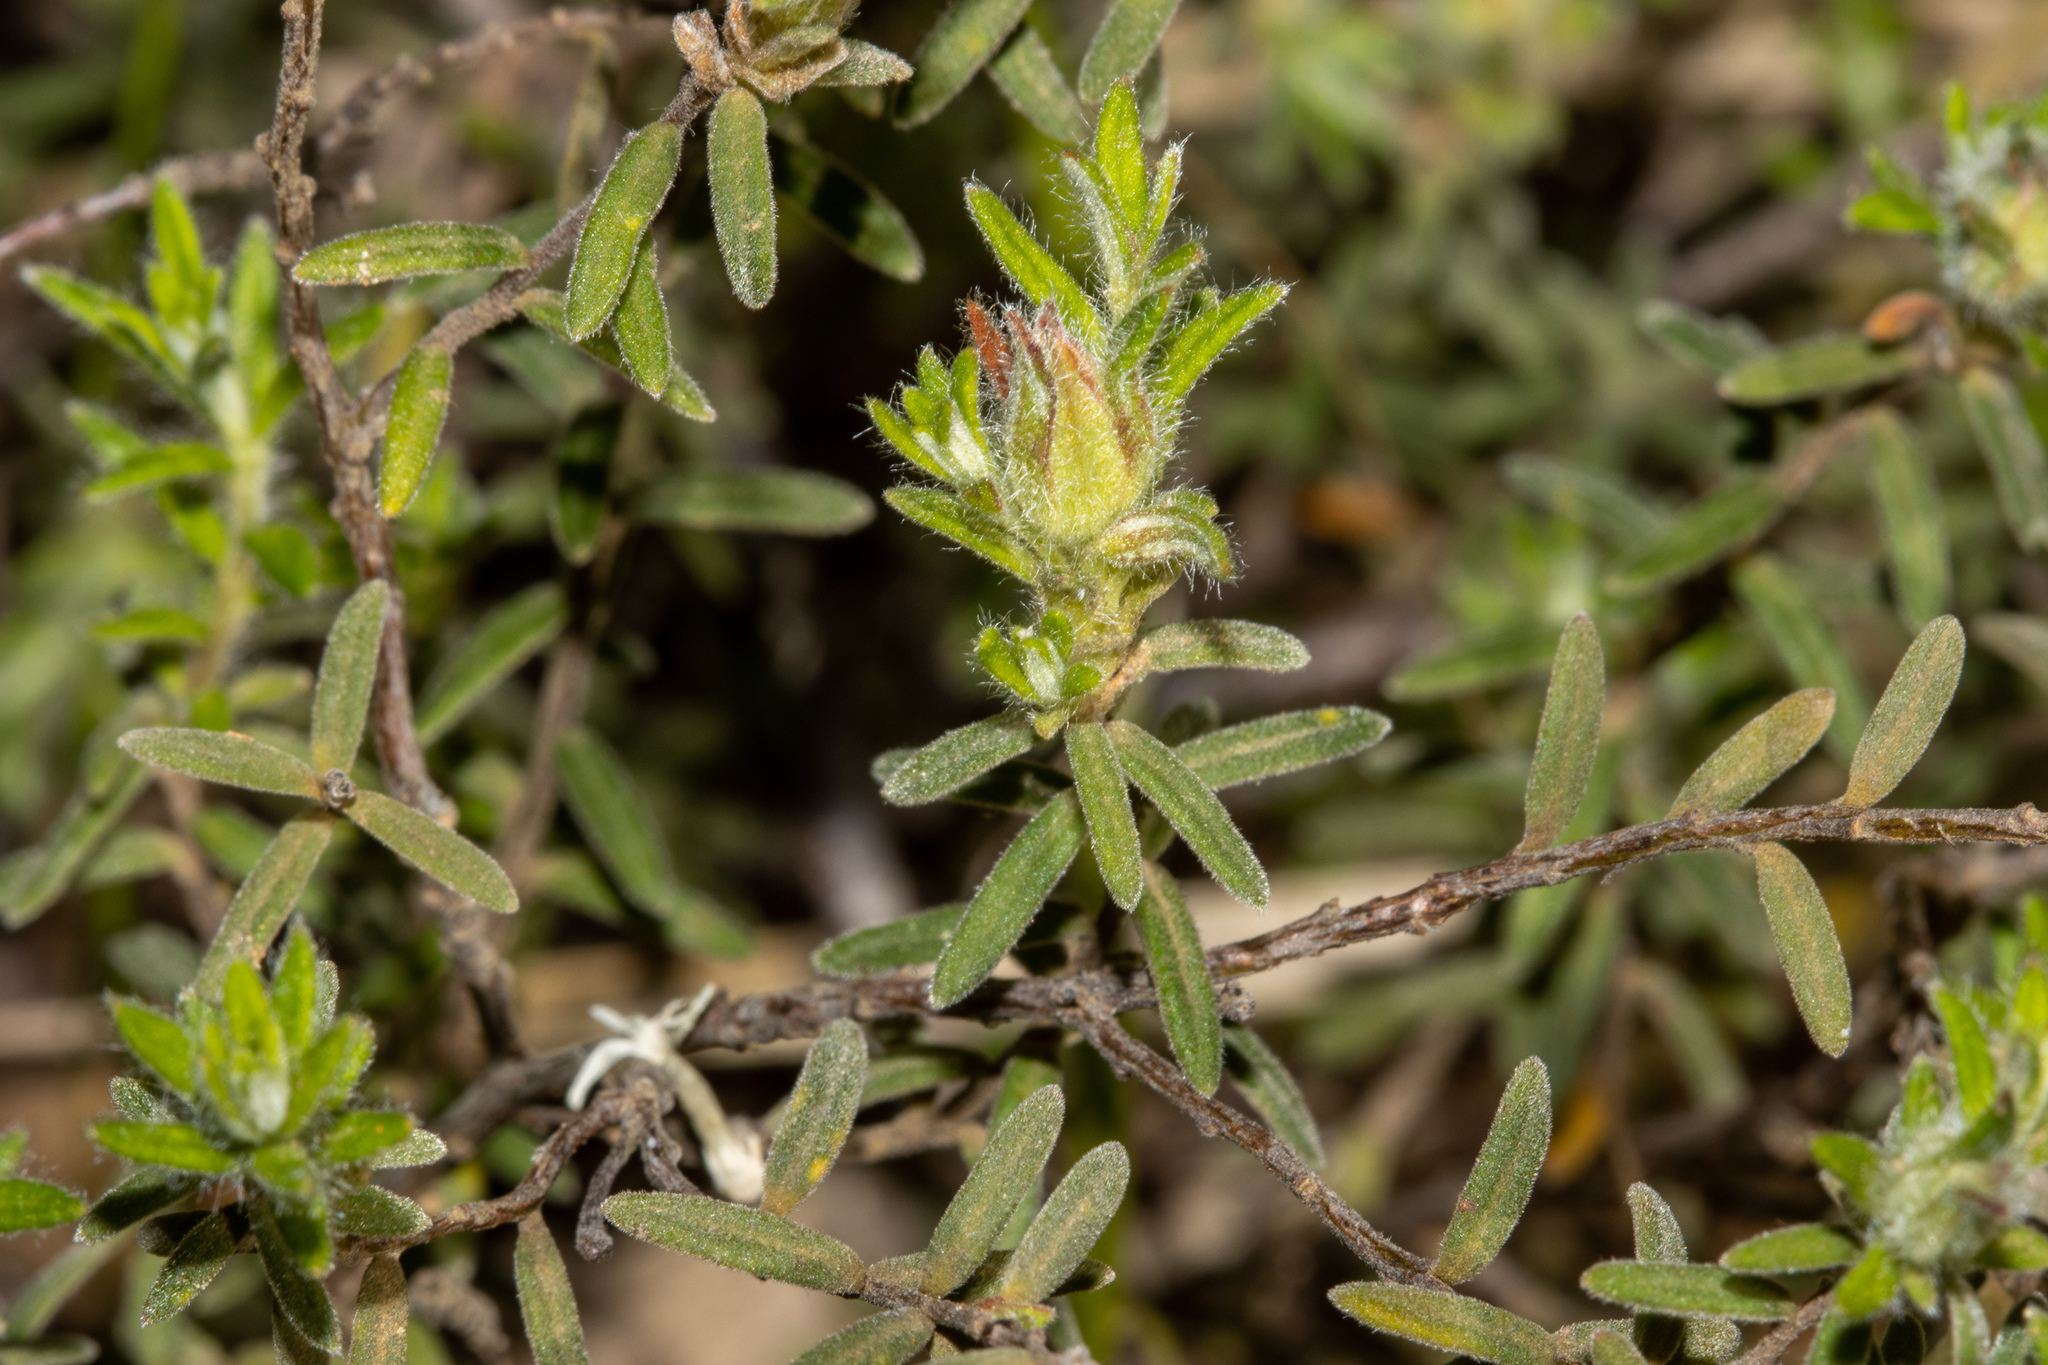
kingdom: Plantae
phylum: Tracheophyta
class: Magnoliopsida
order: Dilleniales
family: Dilleniaceae
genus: Hibbertia
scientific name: Hibbertia crinita
